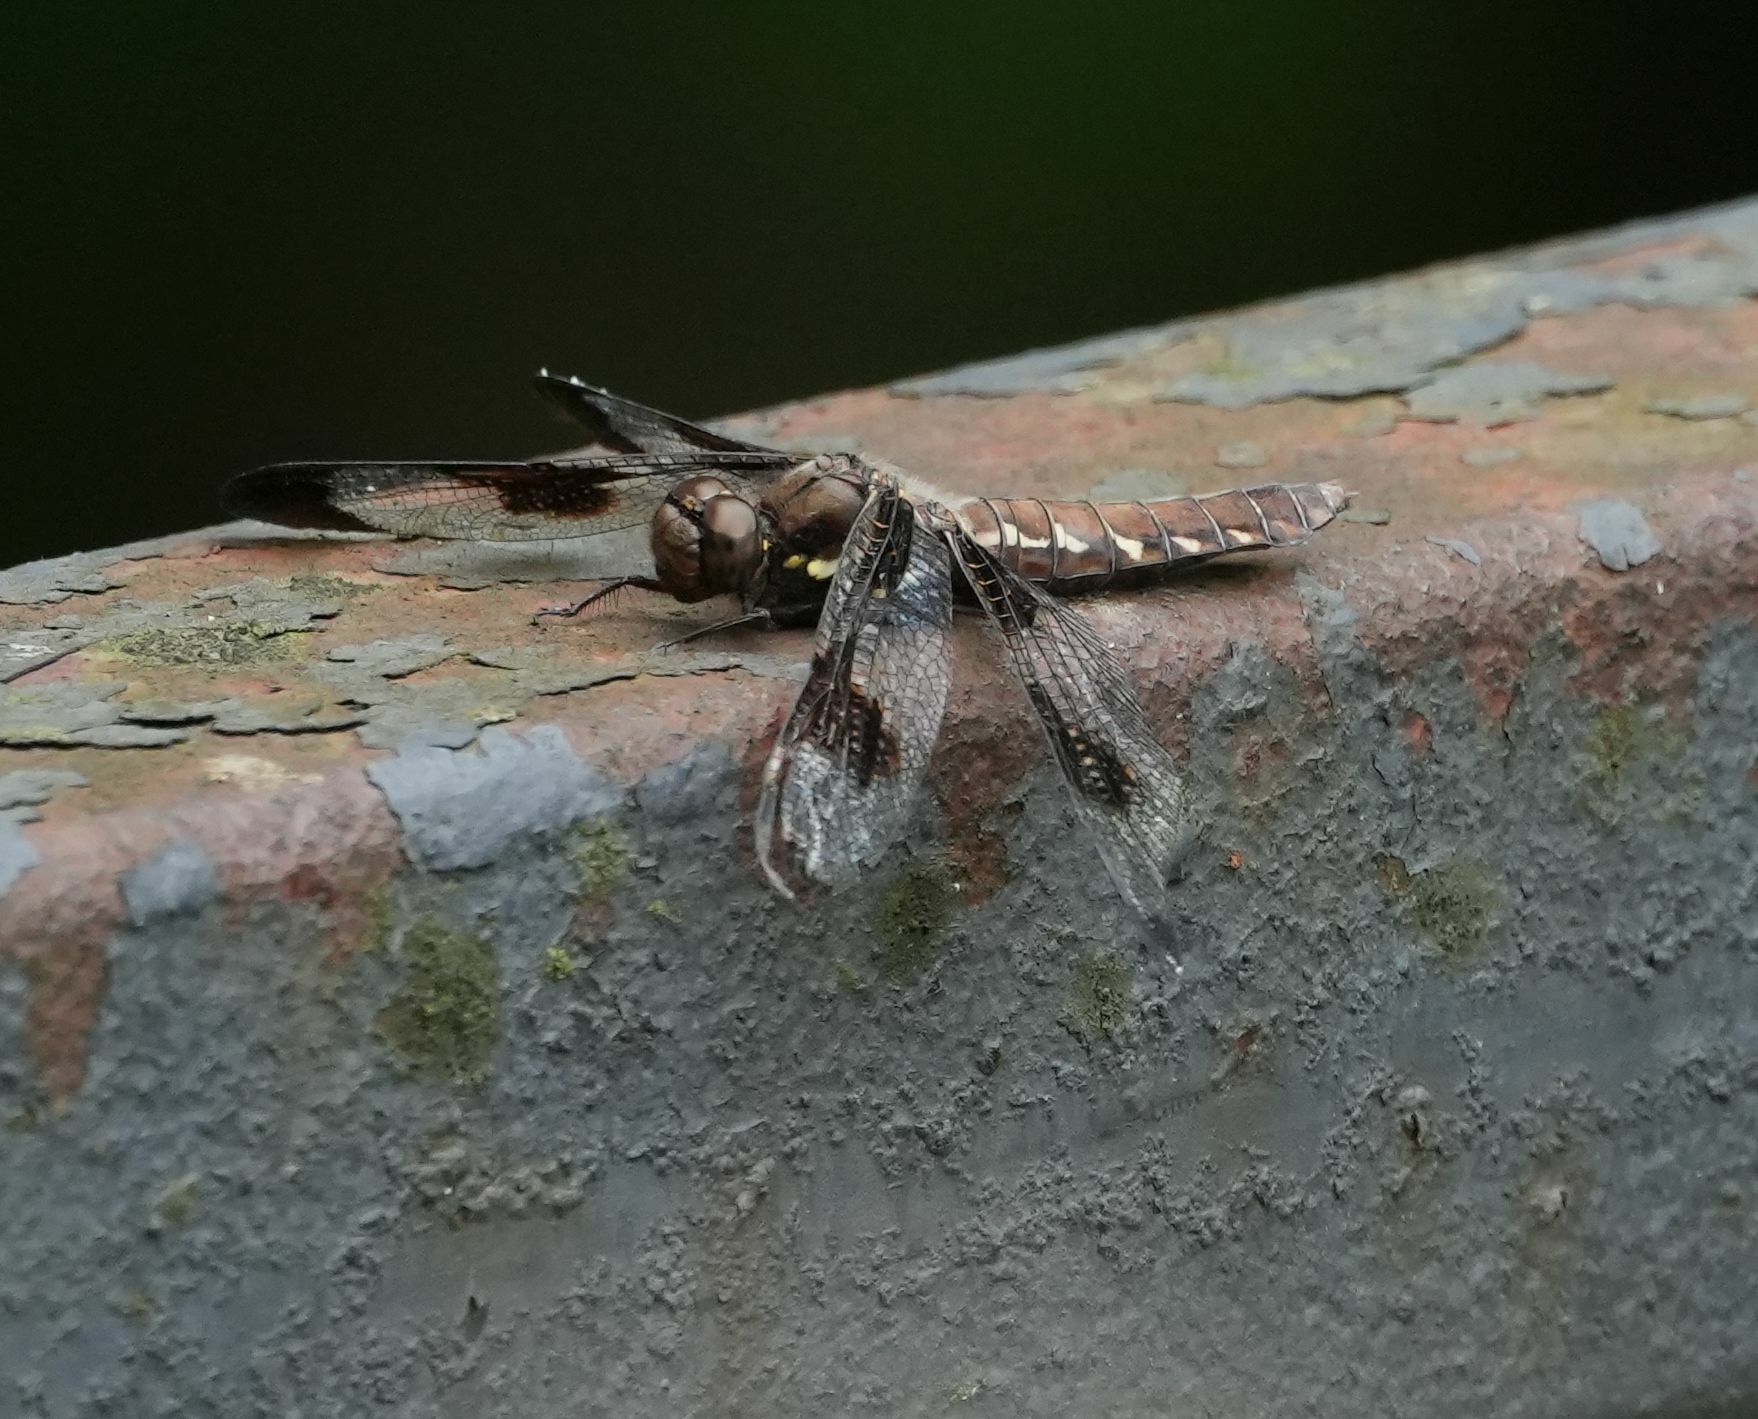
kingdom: Animalia
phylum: Arthropoda
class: Insecta
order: Odonata
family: Libellulidae
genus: Plathemis
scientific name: Plathemis lydia
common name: Common whitetail
